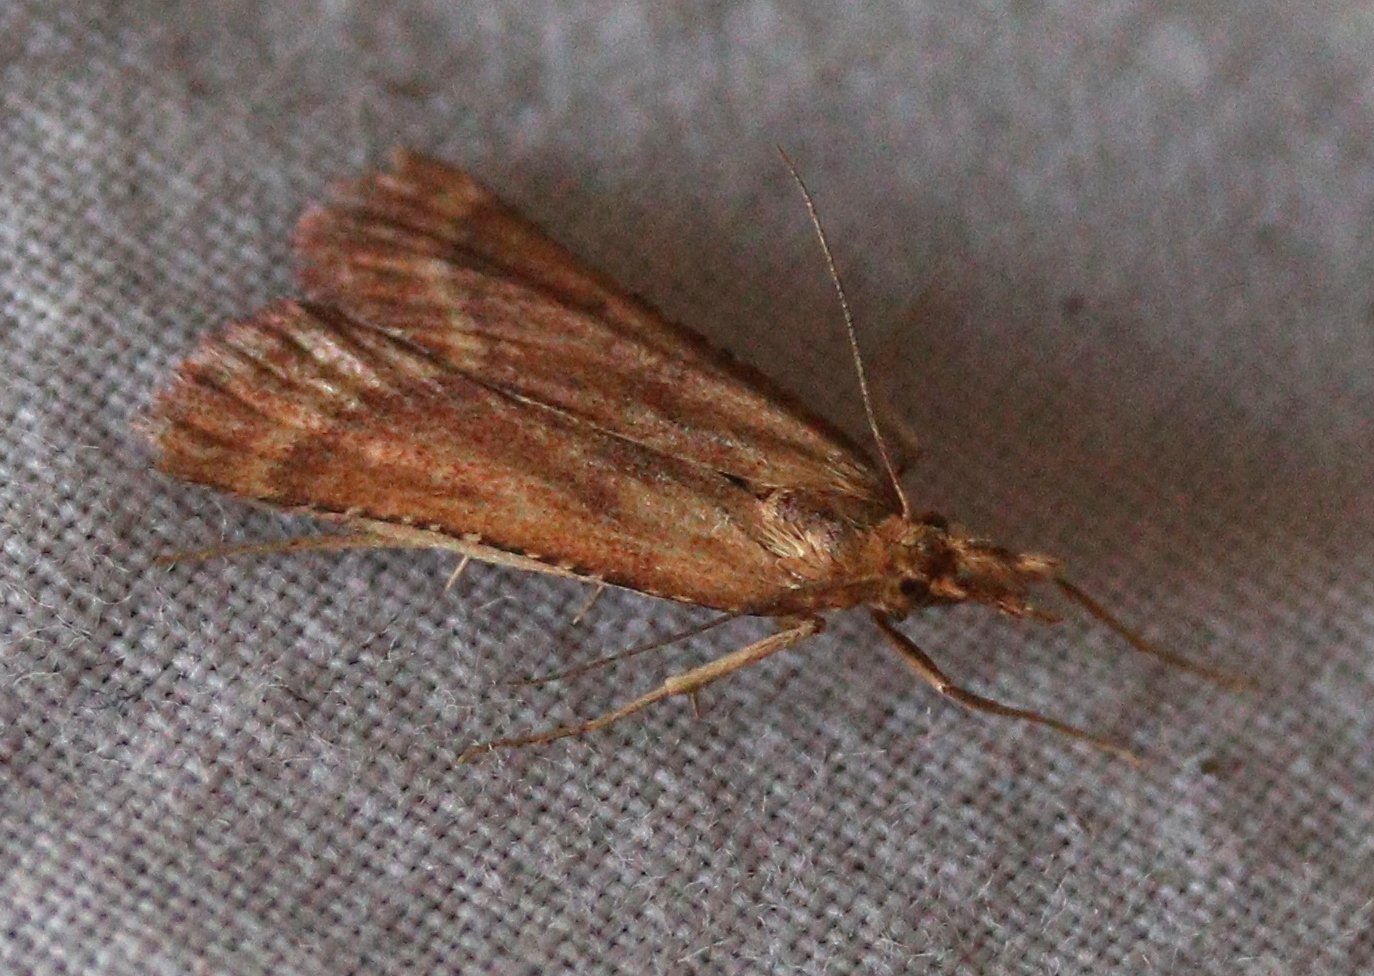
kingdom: Animalia
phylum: Arthropoda
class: Insecta
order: Lepidoptera
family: Pyralidae
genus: Synaphe
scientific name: Synaphe punctalis
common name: Long-legged tabby
